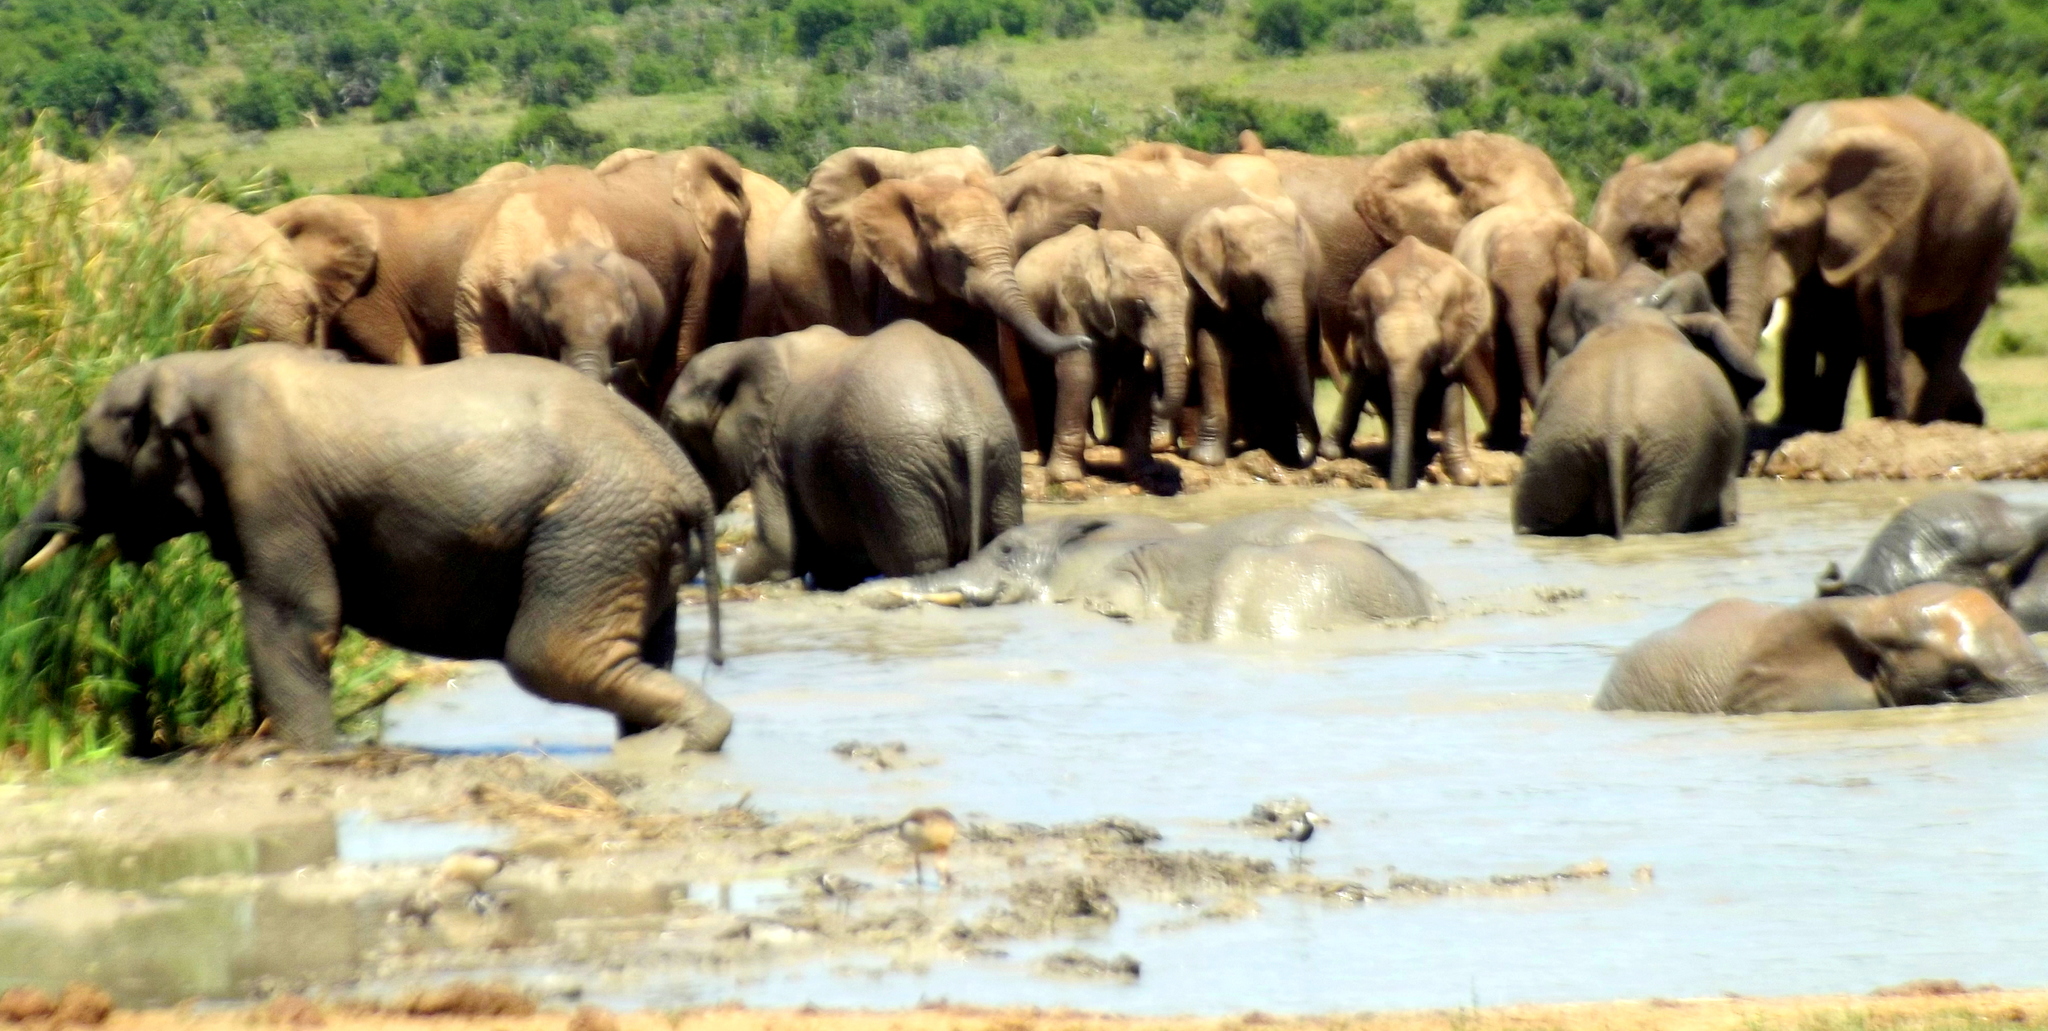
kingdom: Animalia
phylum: Chordata
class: Mammalia
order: Proboscidea
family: Elephantidae
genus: Loxodonta
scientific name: Loxodonta africana
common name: African elephant
